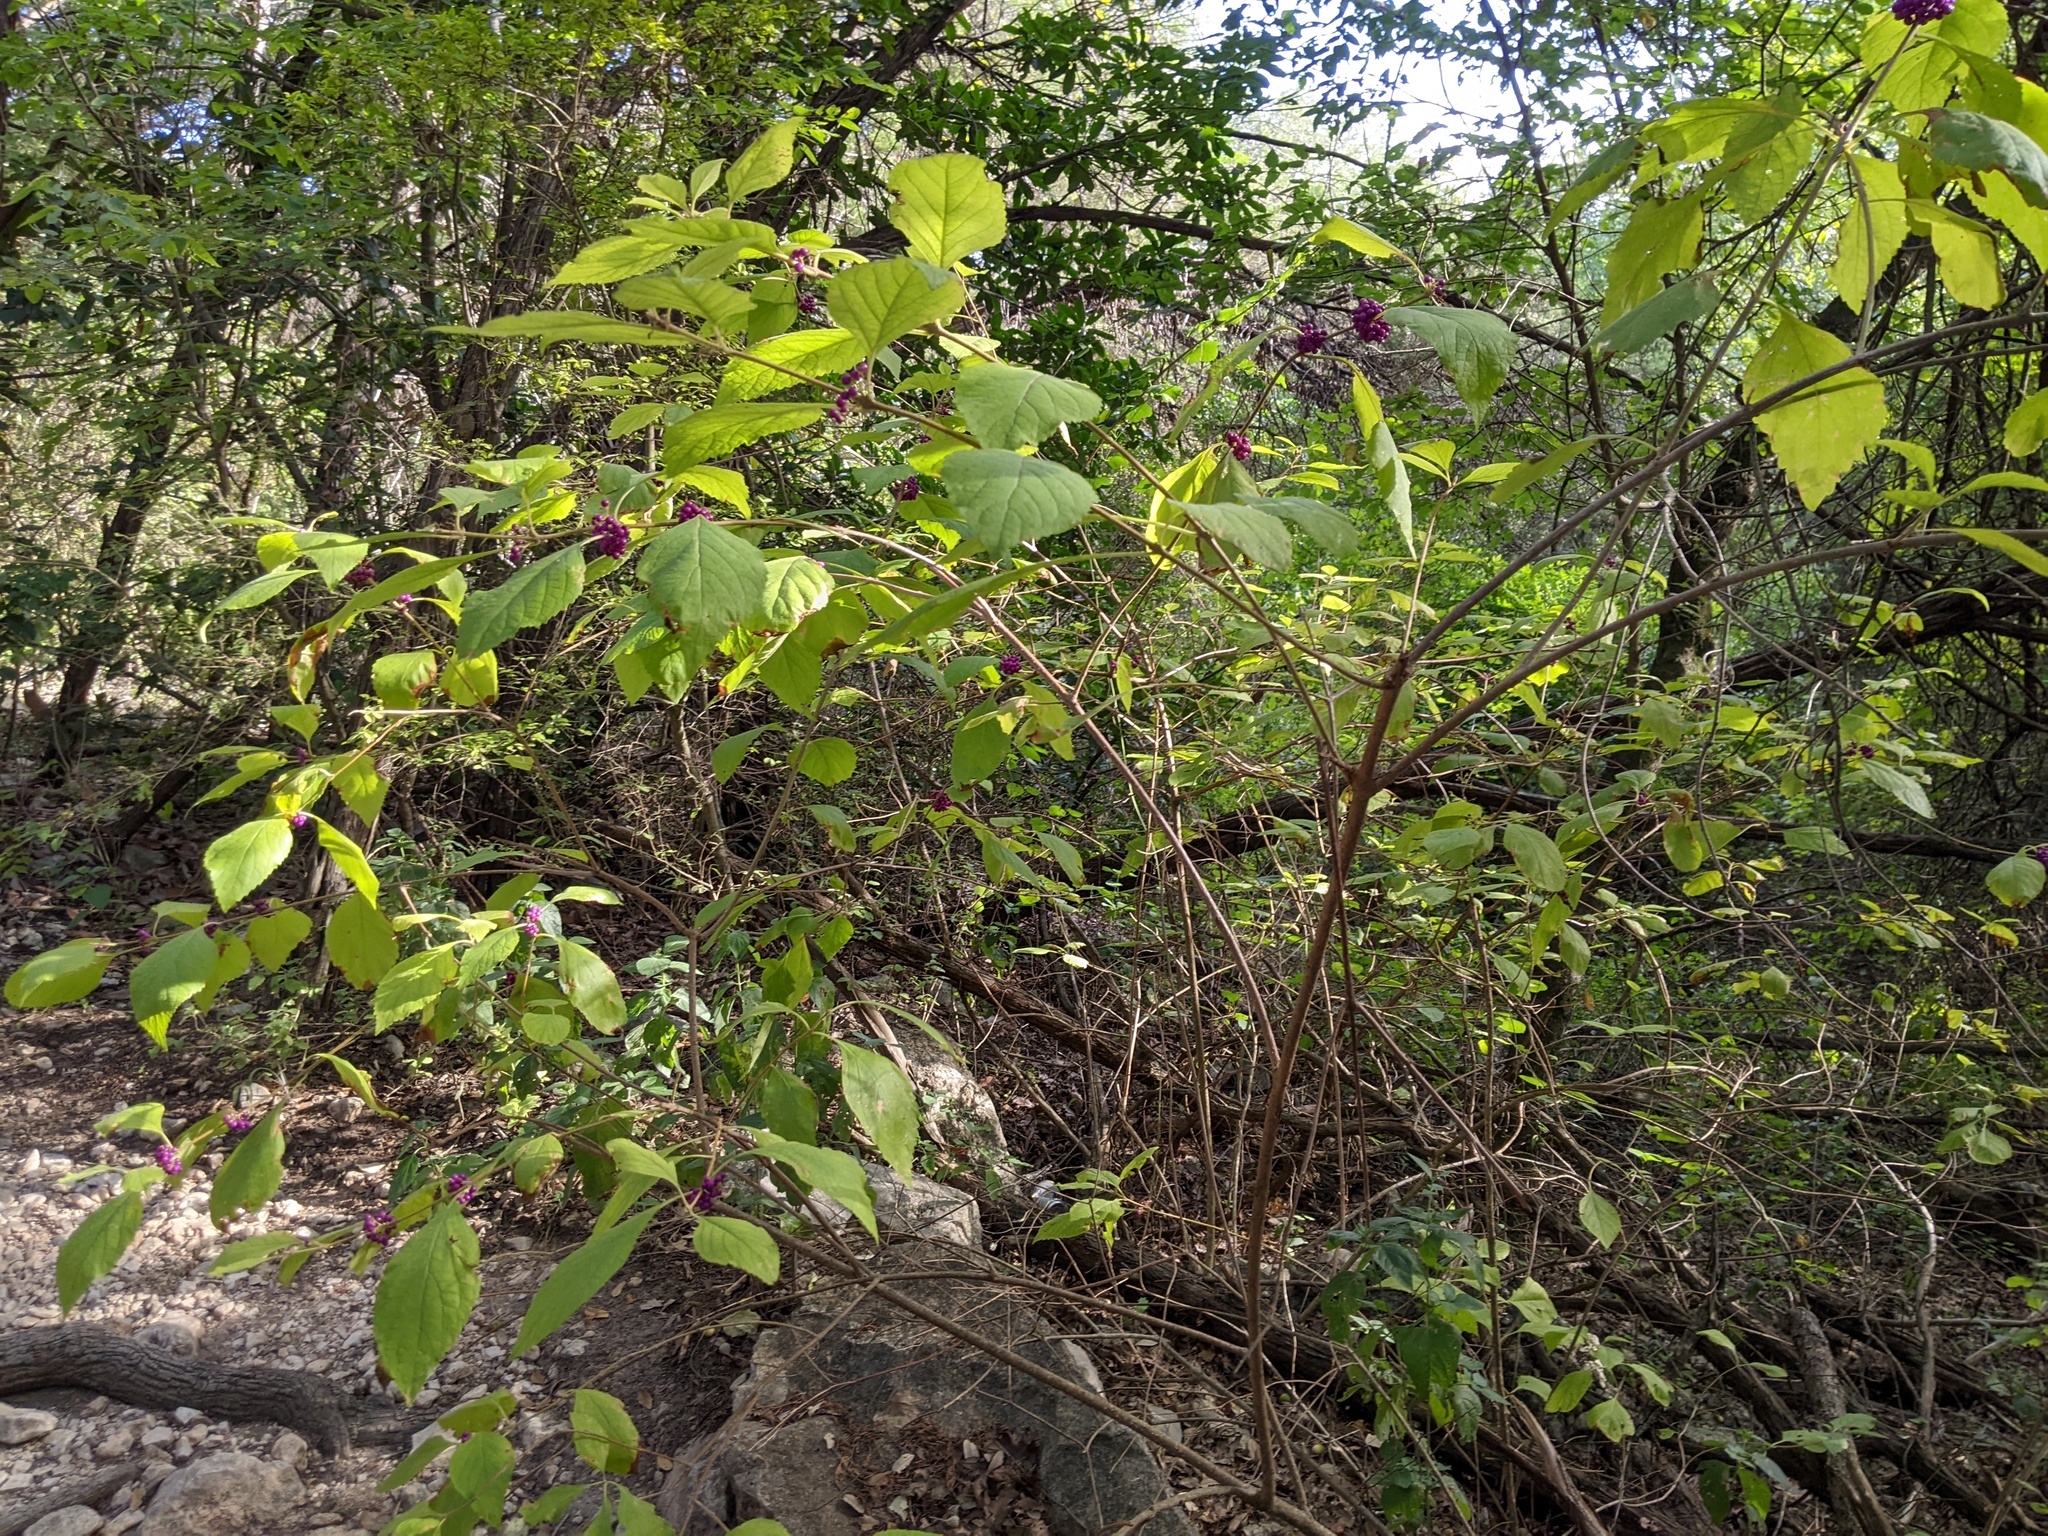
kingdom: Plantae
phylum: Tracheophyta
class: Magnoliopsida
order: Lamiales
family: Lamiaceae
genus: Callicarpa
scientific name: Callicarpa americana
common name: American beautyberry
